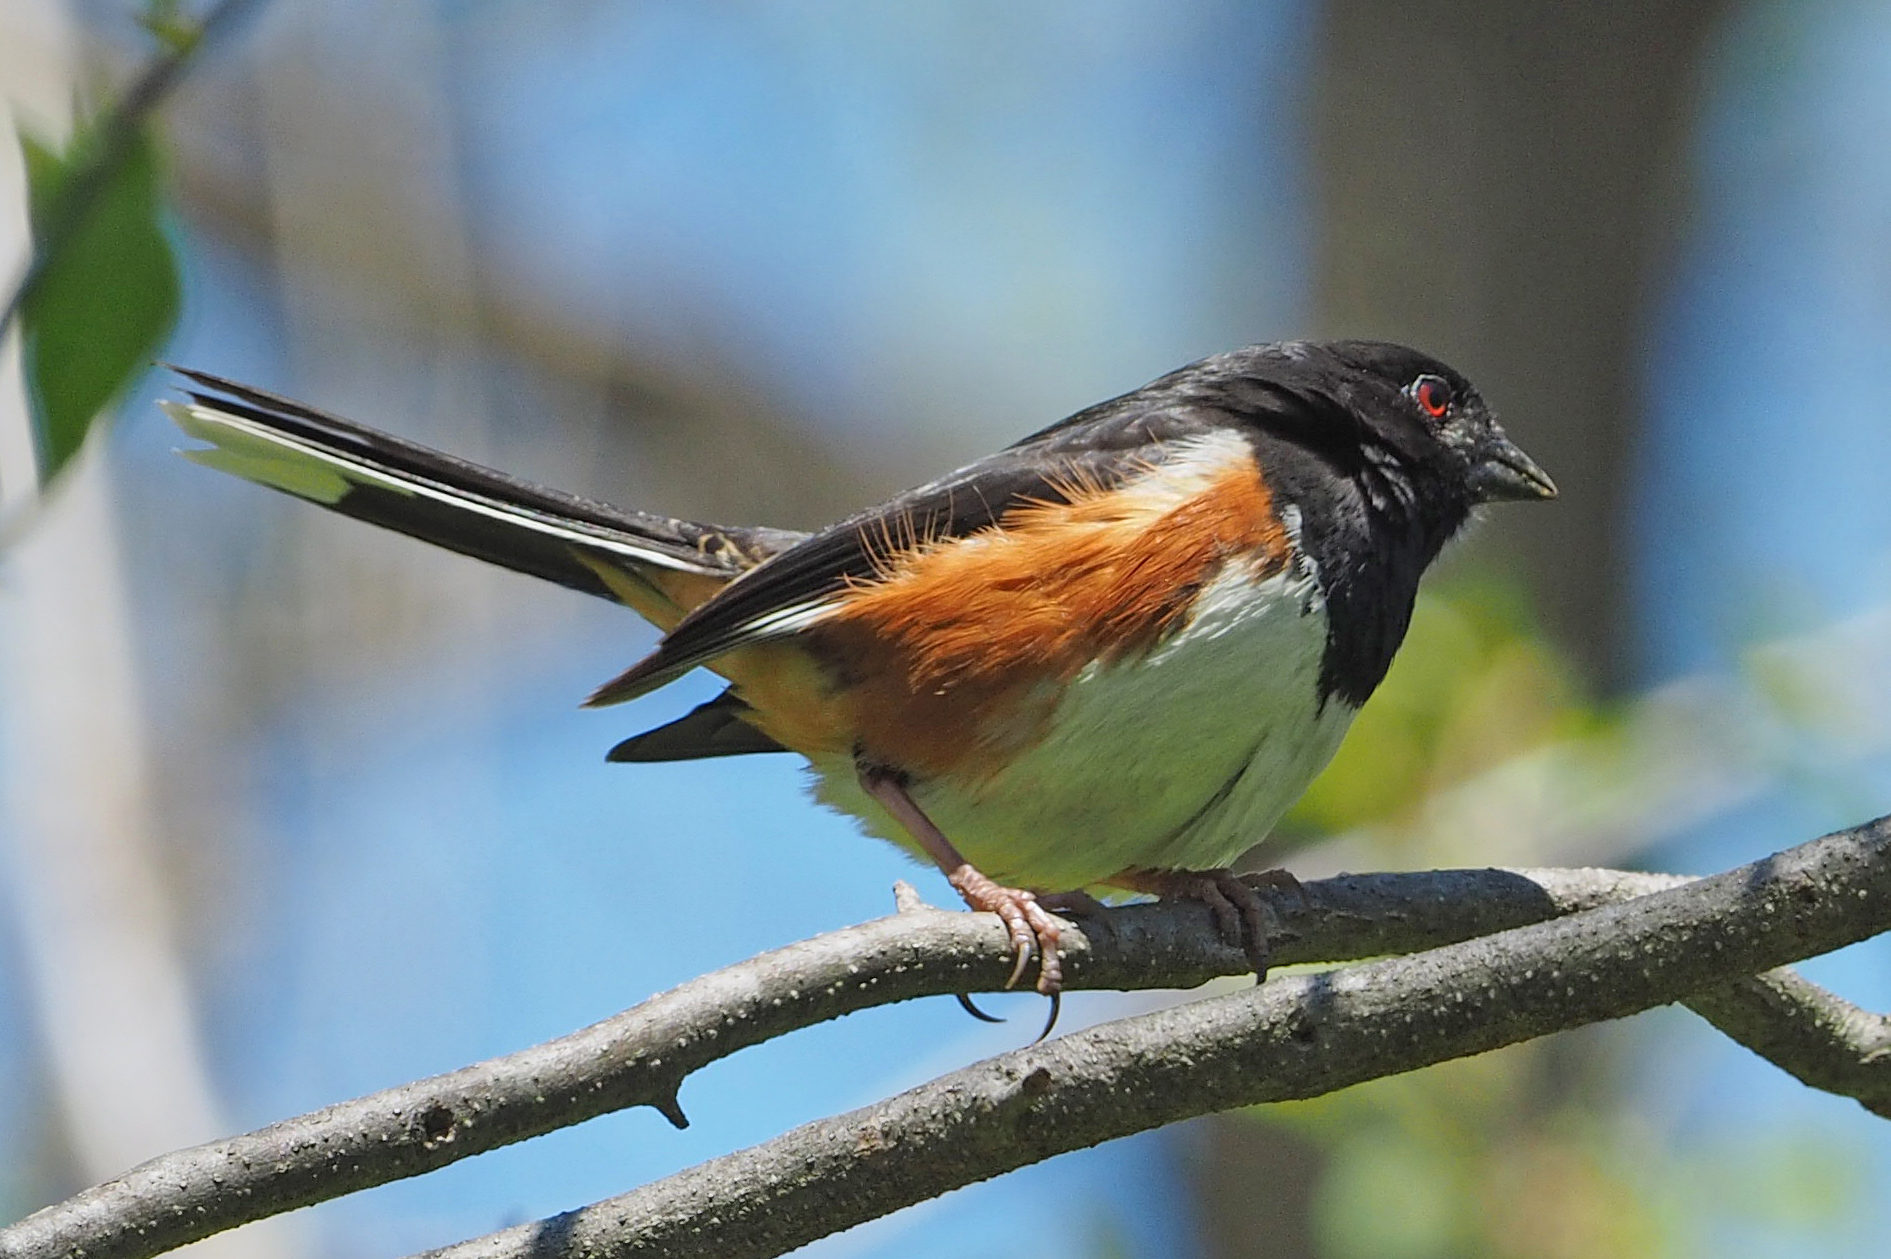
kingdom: Animalia
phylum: Chordata
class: Aves
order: Passeriformes
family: Passerellidae
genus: Pipilo
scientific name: Pipilo erythrophthalmus
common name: Eastern towhee
